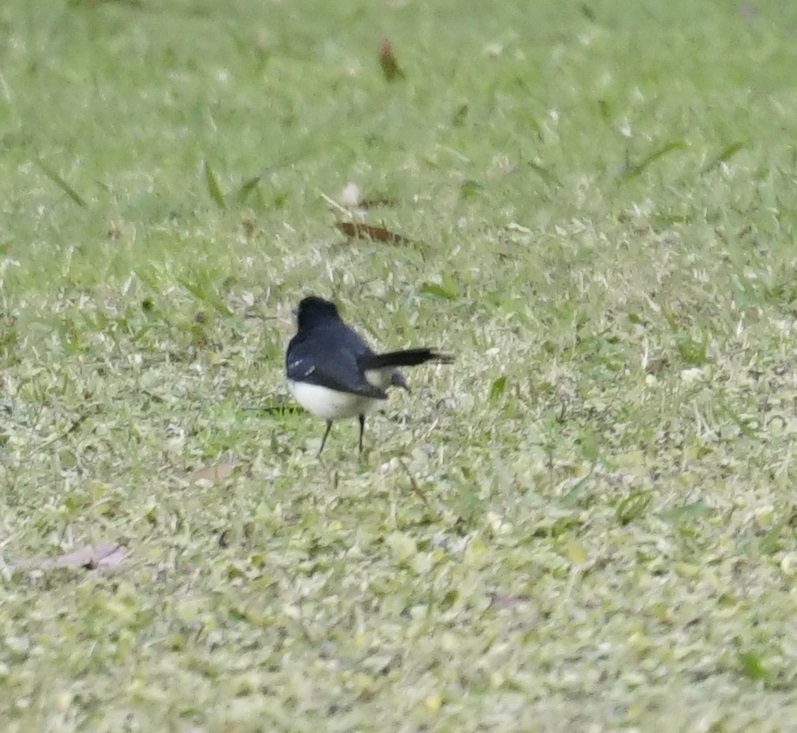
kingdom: Animalia
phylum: Chordata
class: Aves
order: Passeriformes
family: Rhipiduridae
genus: Rhipidura
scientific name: Rhipidura leucophrys
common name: Willie wagtail
